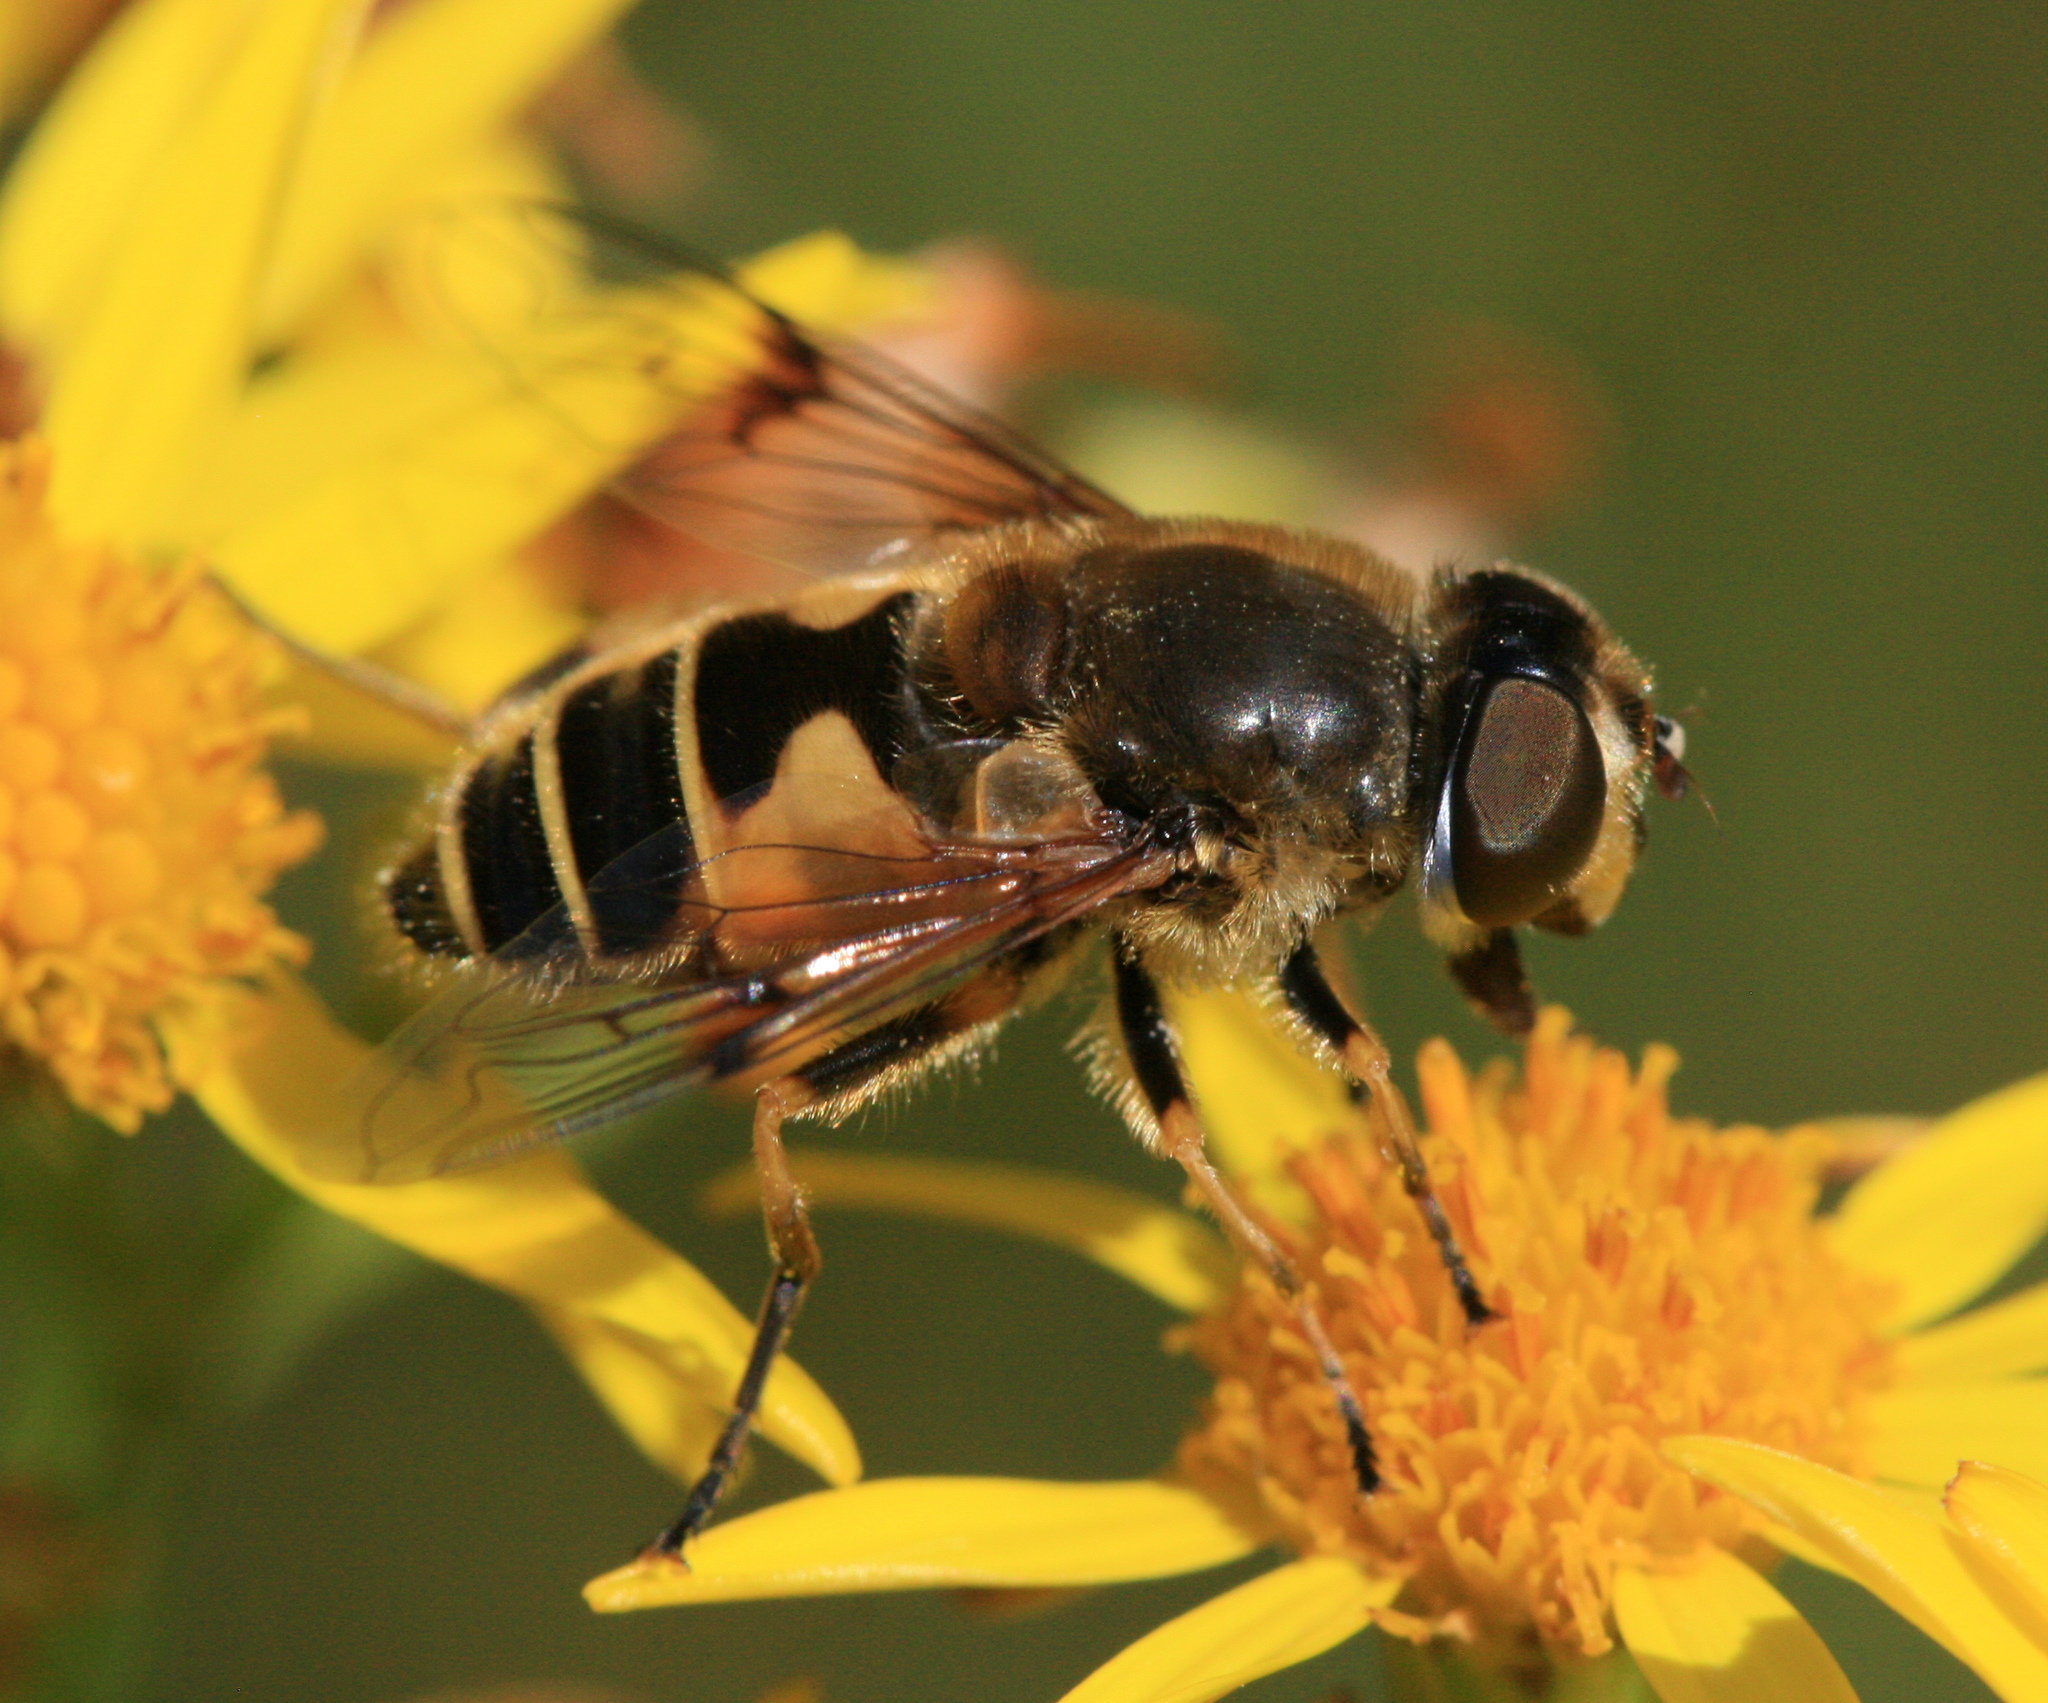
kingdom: Animalia
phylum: Arthropoda
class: Insecta
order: Diptera
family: Syrphidae
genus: Cheilosia
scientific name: Cheilosia morio
